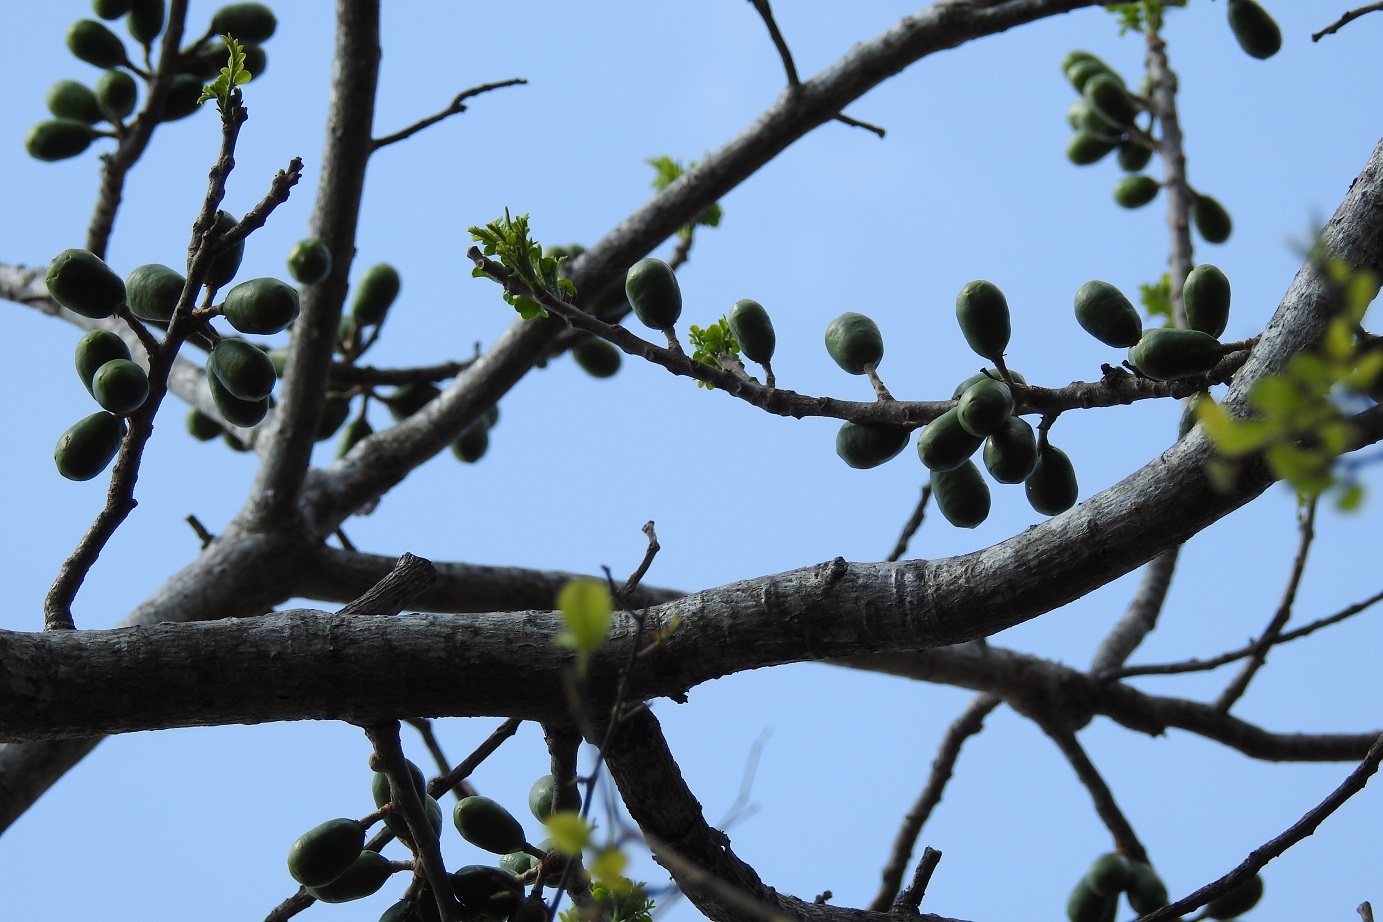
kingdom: Plantae
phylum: Tracheophyta
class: Magnoliopsida
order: Sapindales
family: Anacardiaceae
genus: Spondias
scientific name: Spondias purpurea
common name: Purple mombin
